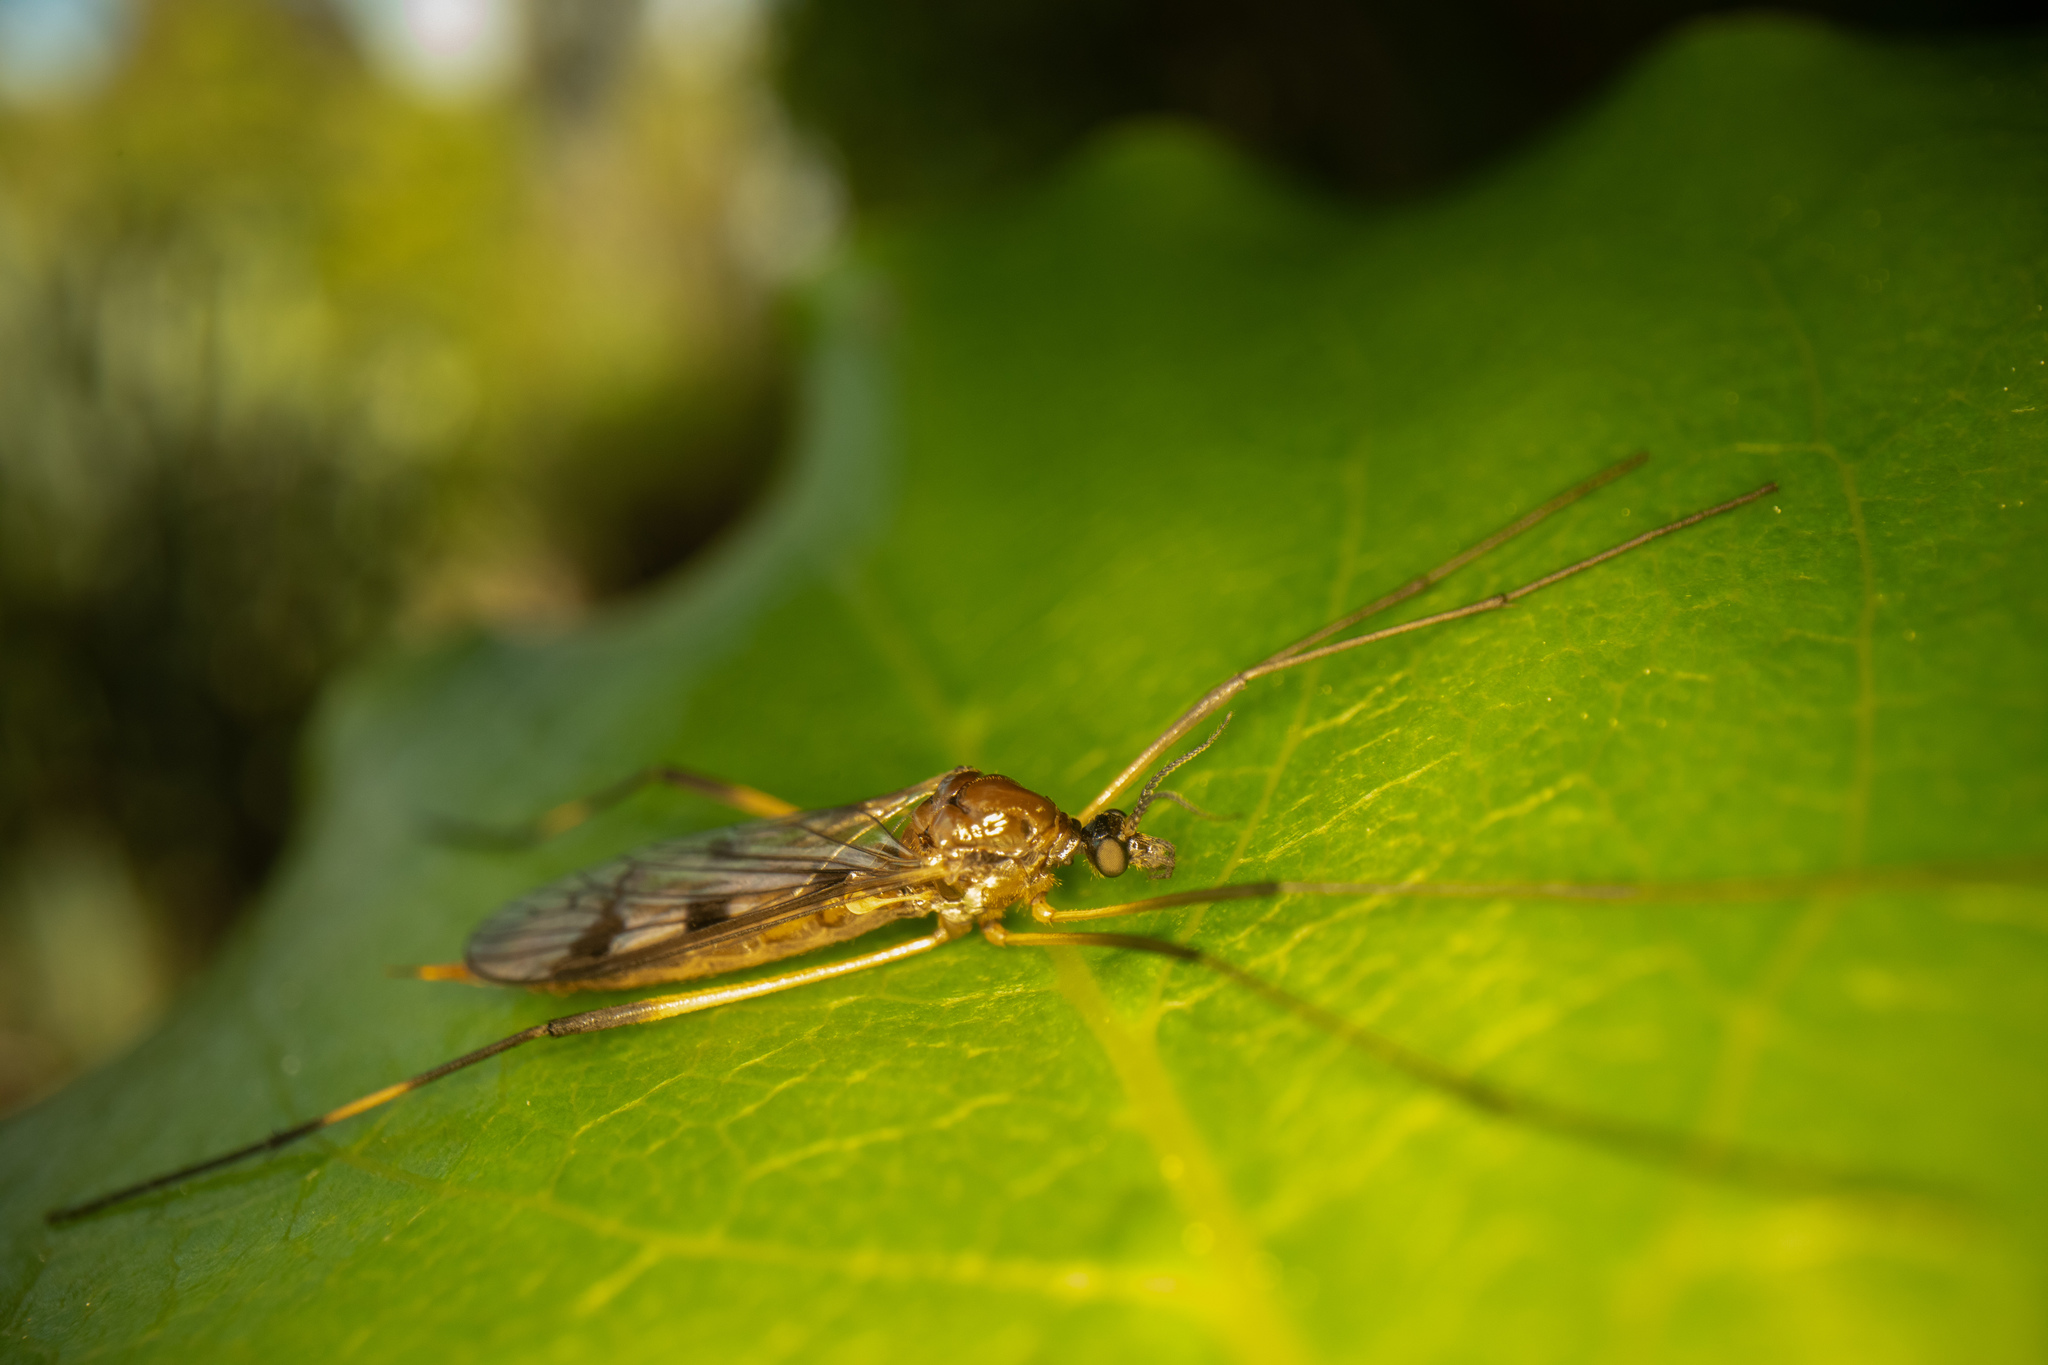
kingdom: Animalia
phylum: Arthropoda
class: Insecta
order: Diptera
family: Limoniidae
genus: Gynoplistia
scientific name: Gynoplistia speciosa
